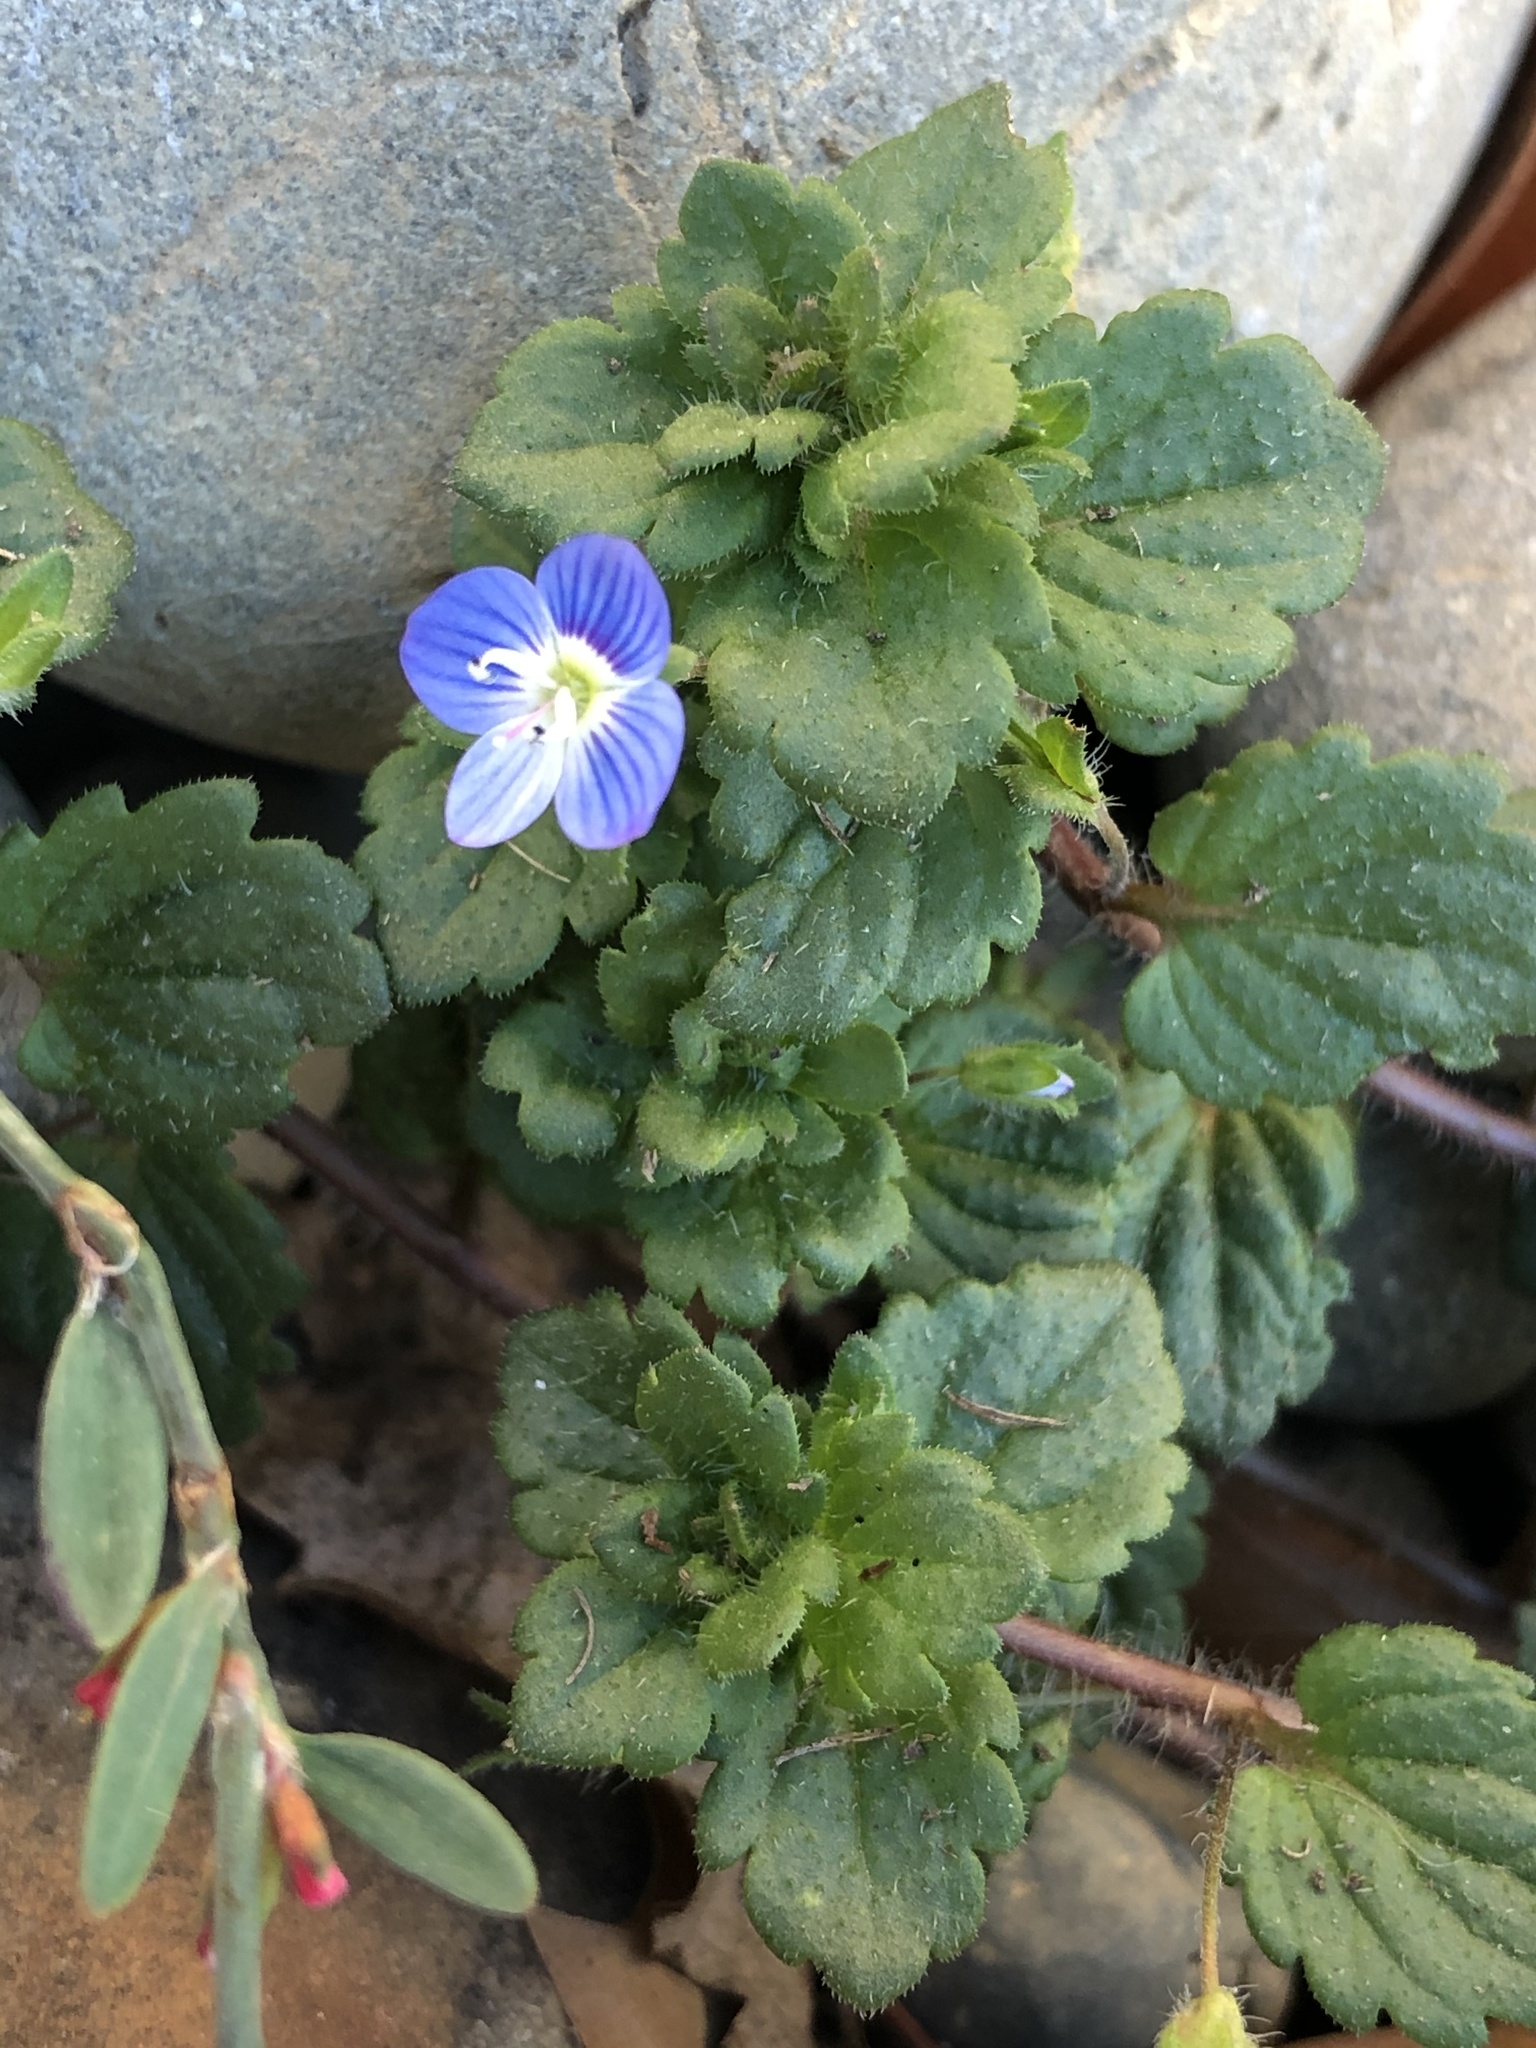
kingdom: Plantae
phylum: Tracheophyta
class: Magnoliopsida
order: Lamiales
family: Plantaginaceae
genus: Veronica
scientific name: Veronica persica
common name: Common field-speedwell
